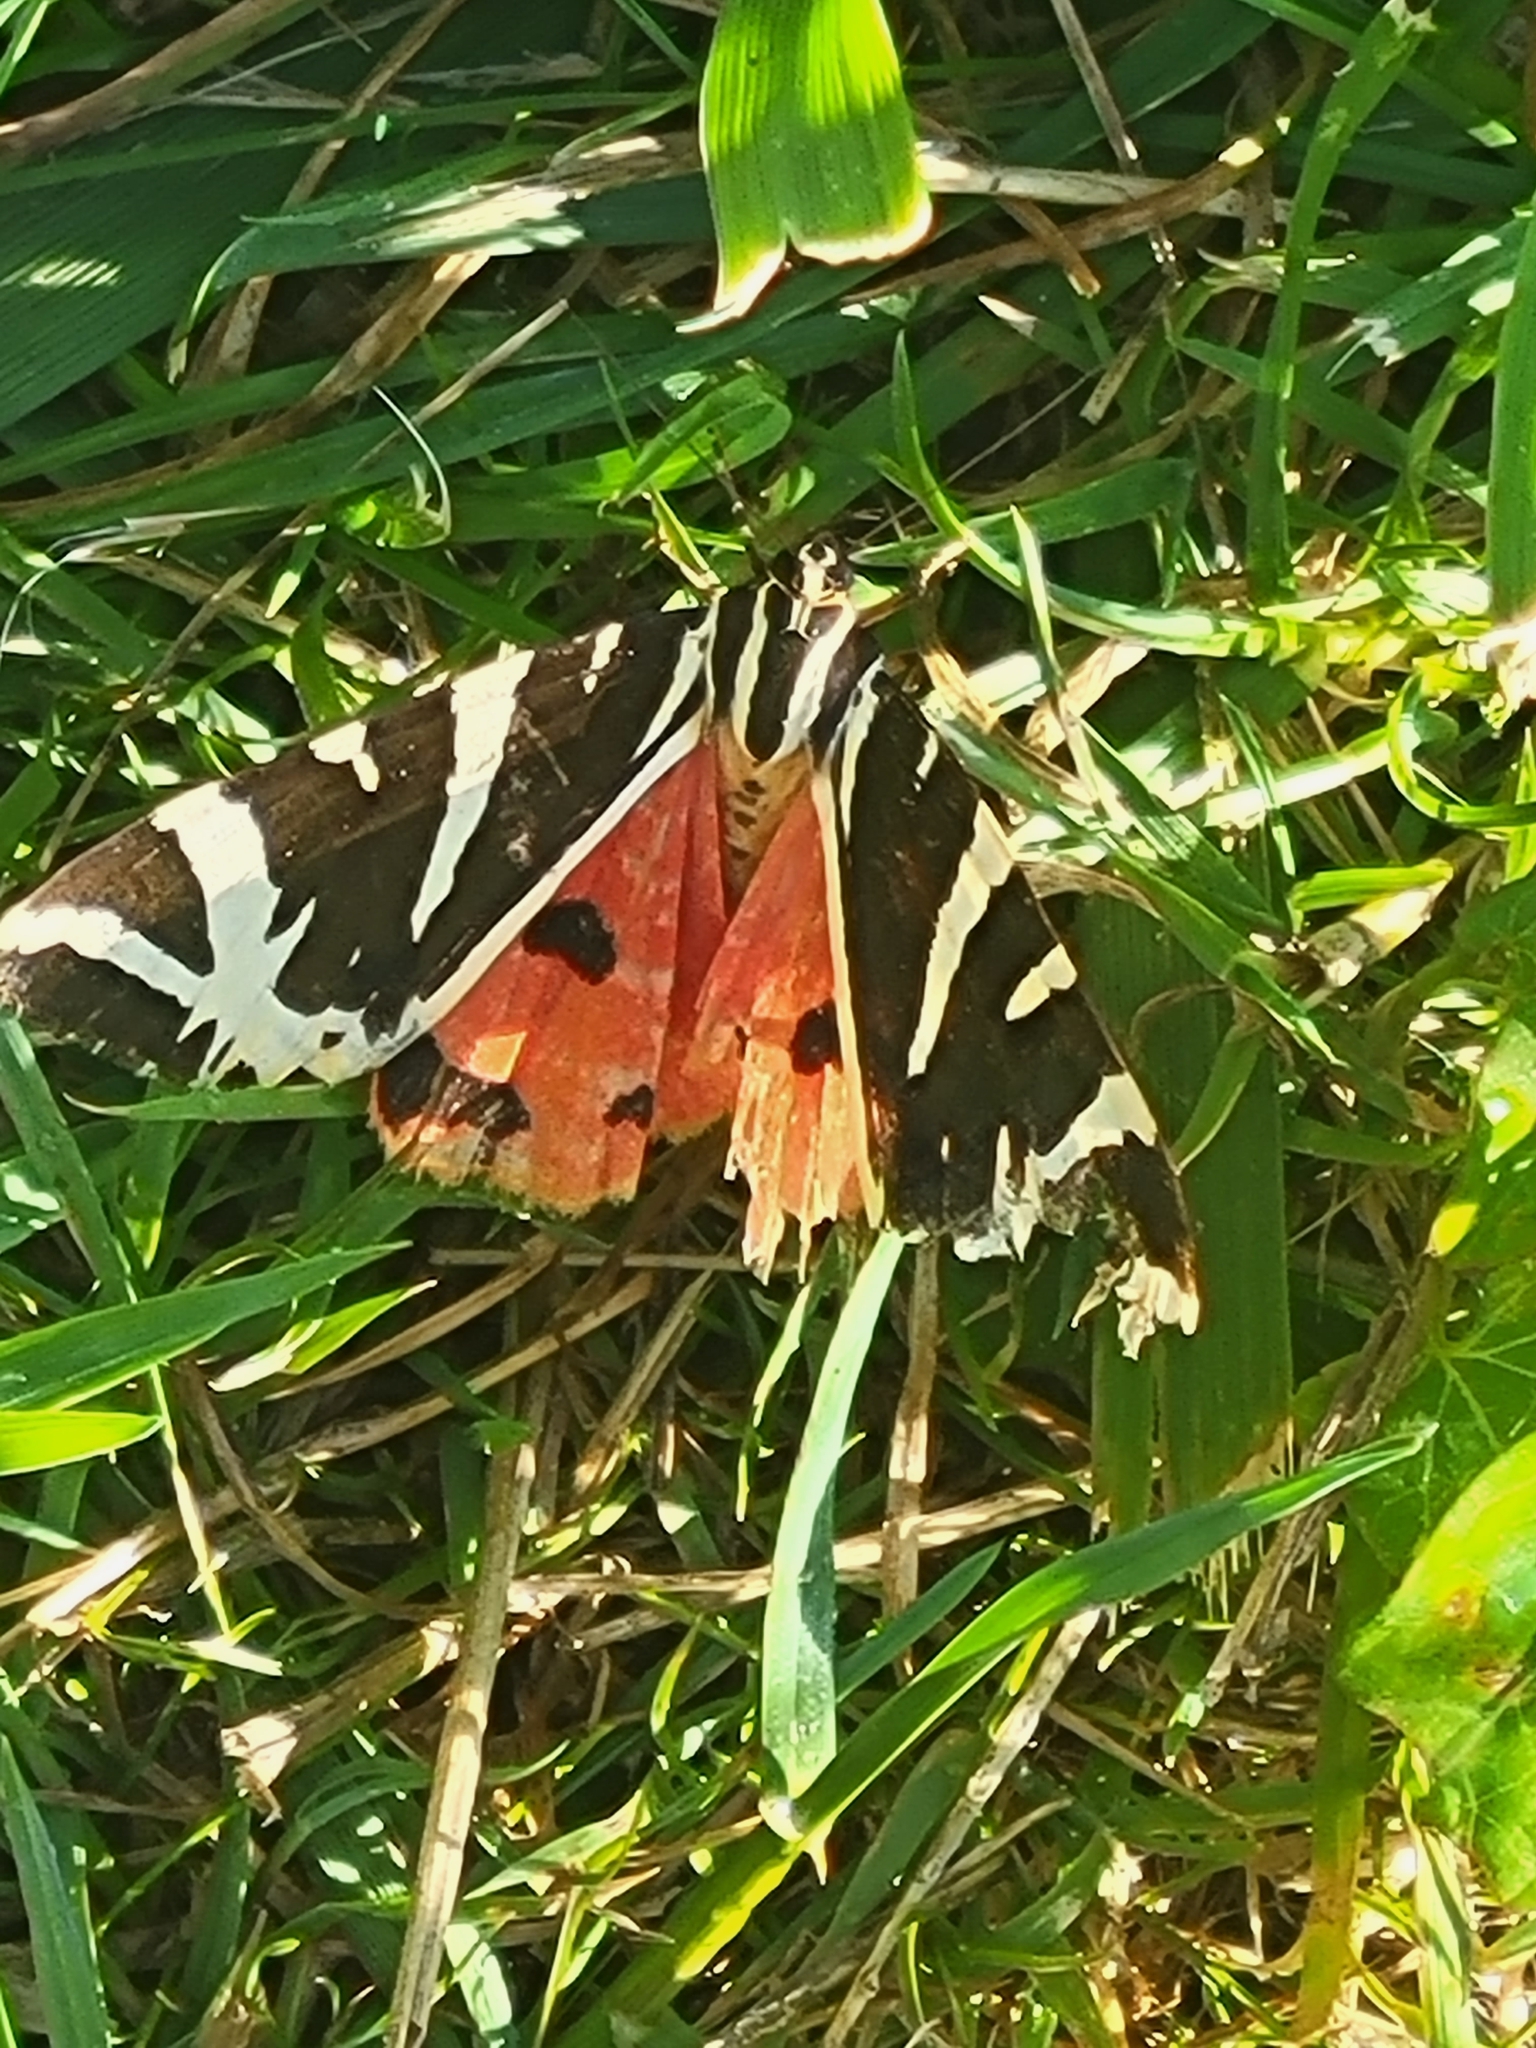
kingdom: Animalia
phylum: Arthropoda
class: Insecta
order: Lepidoptera
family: Erebidae
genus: Euplagia
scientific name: Euplagia quadripunctaria
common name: Jersey tiger
